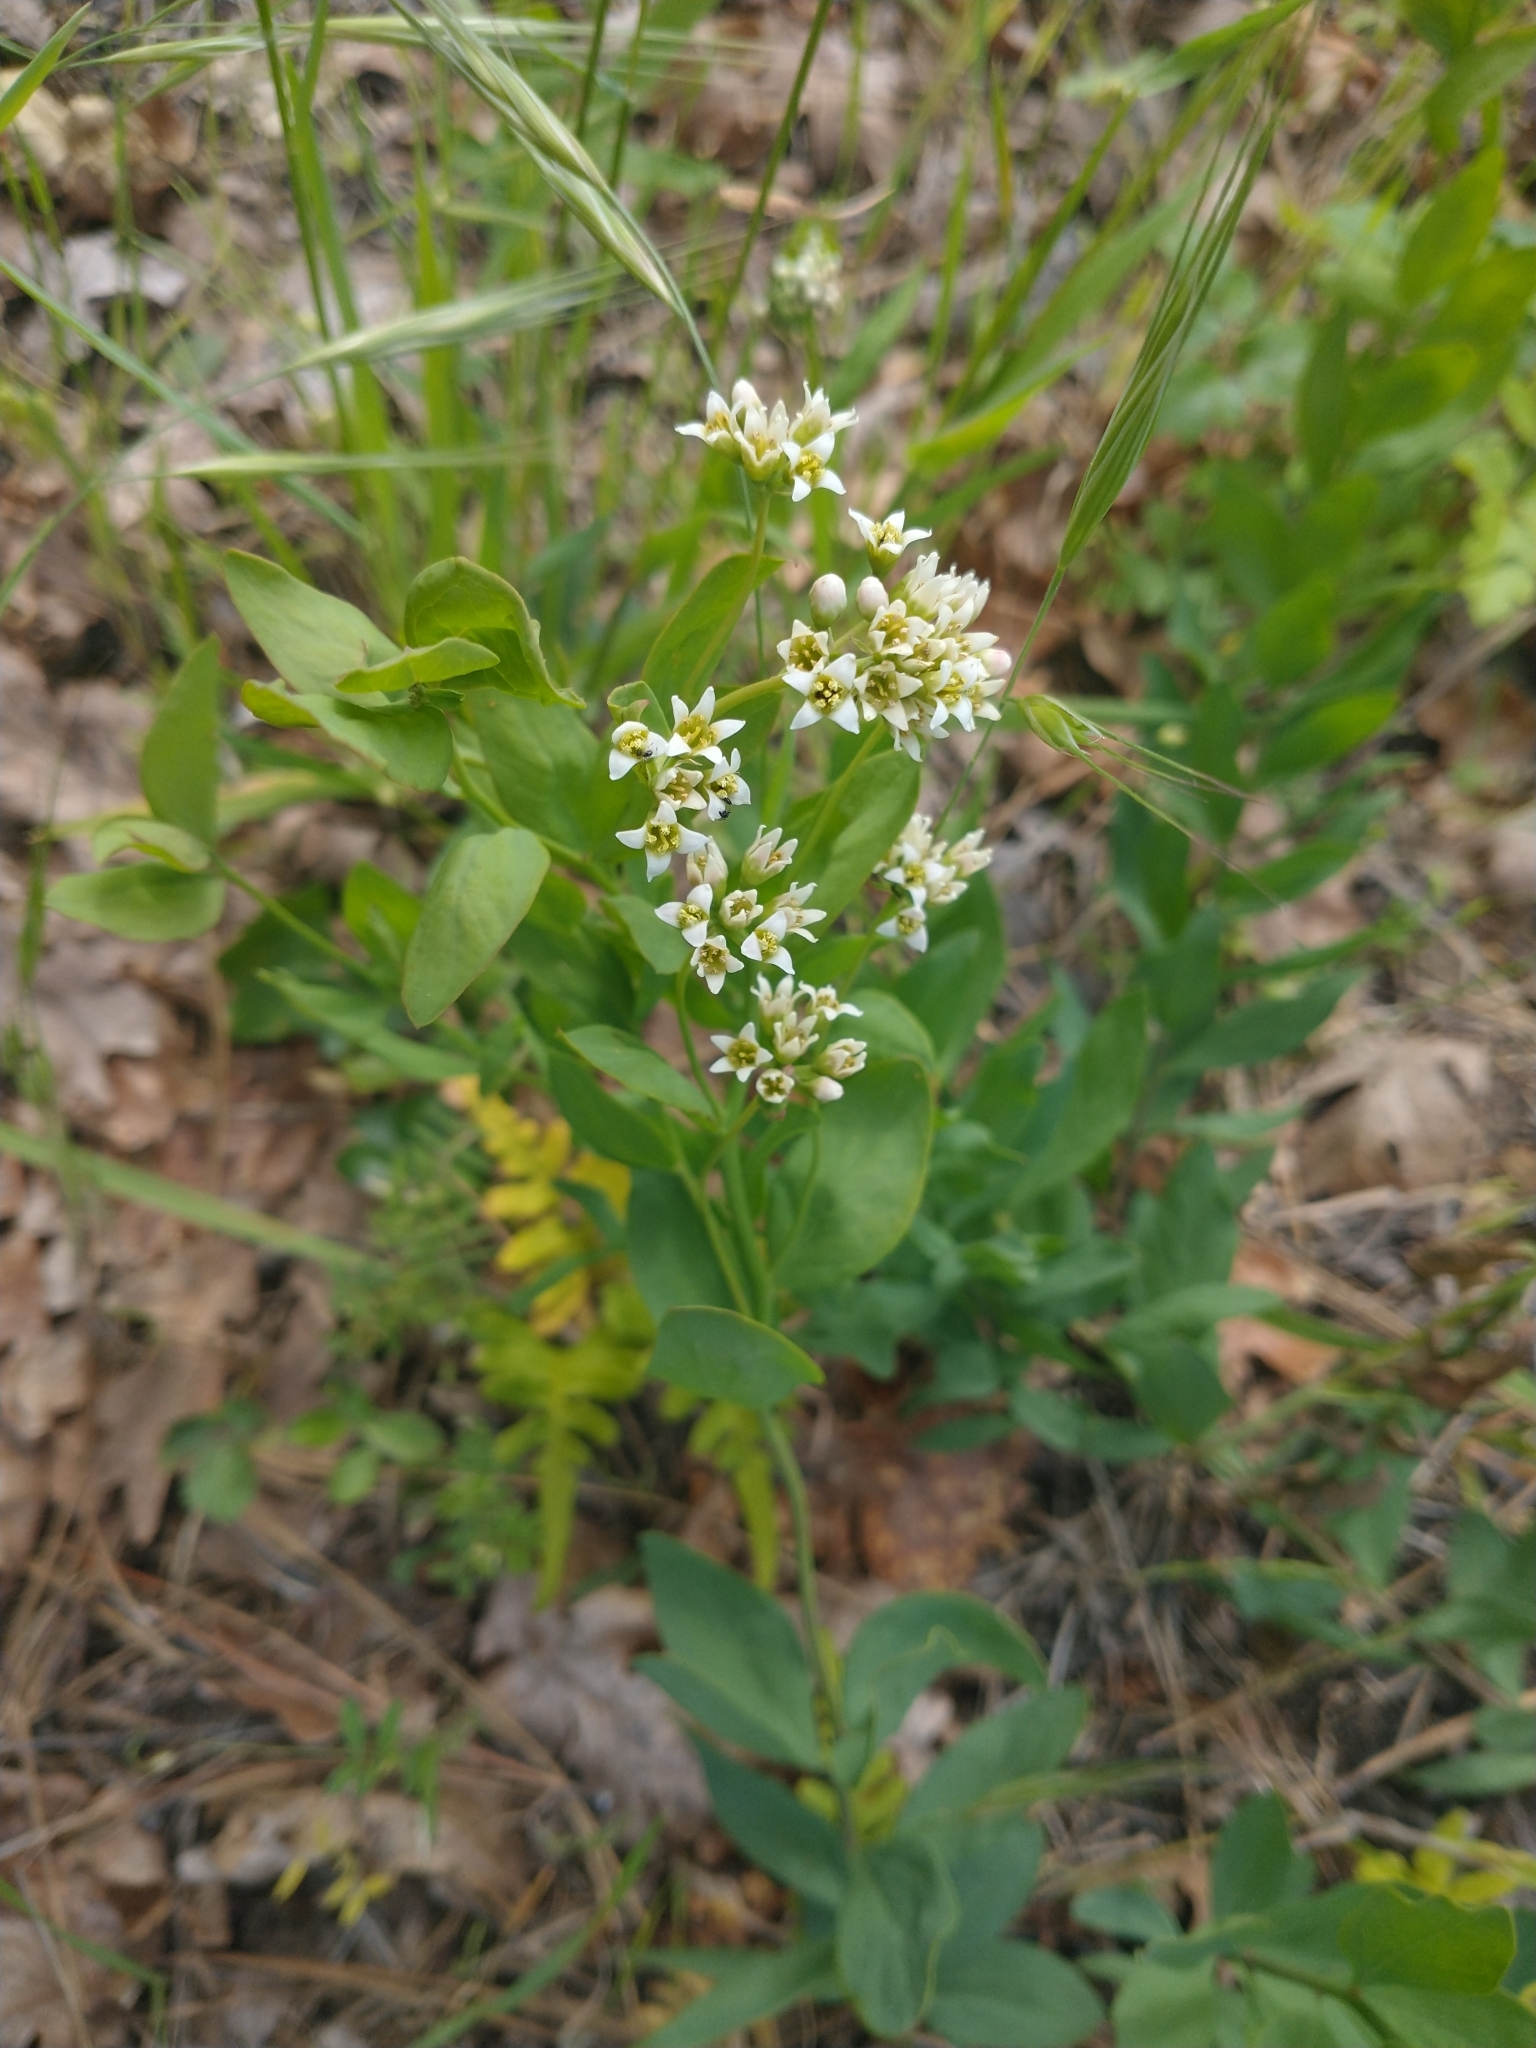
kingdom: Plantae
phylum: Tracheophyta
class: Magnoliopsida
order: Santalales
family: Comandraceae
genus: Comandra
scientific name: Comandra umbellata
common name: Bastard toadflax
